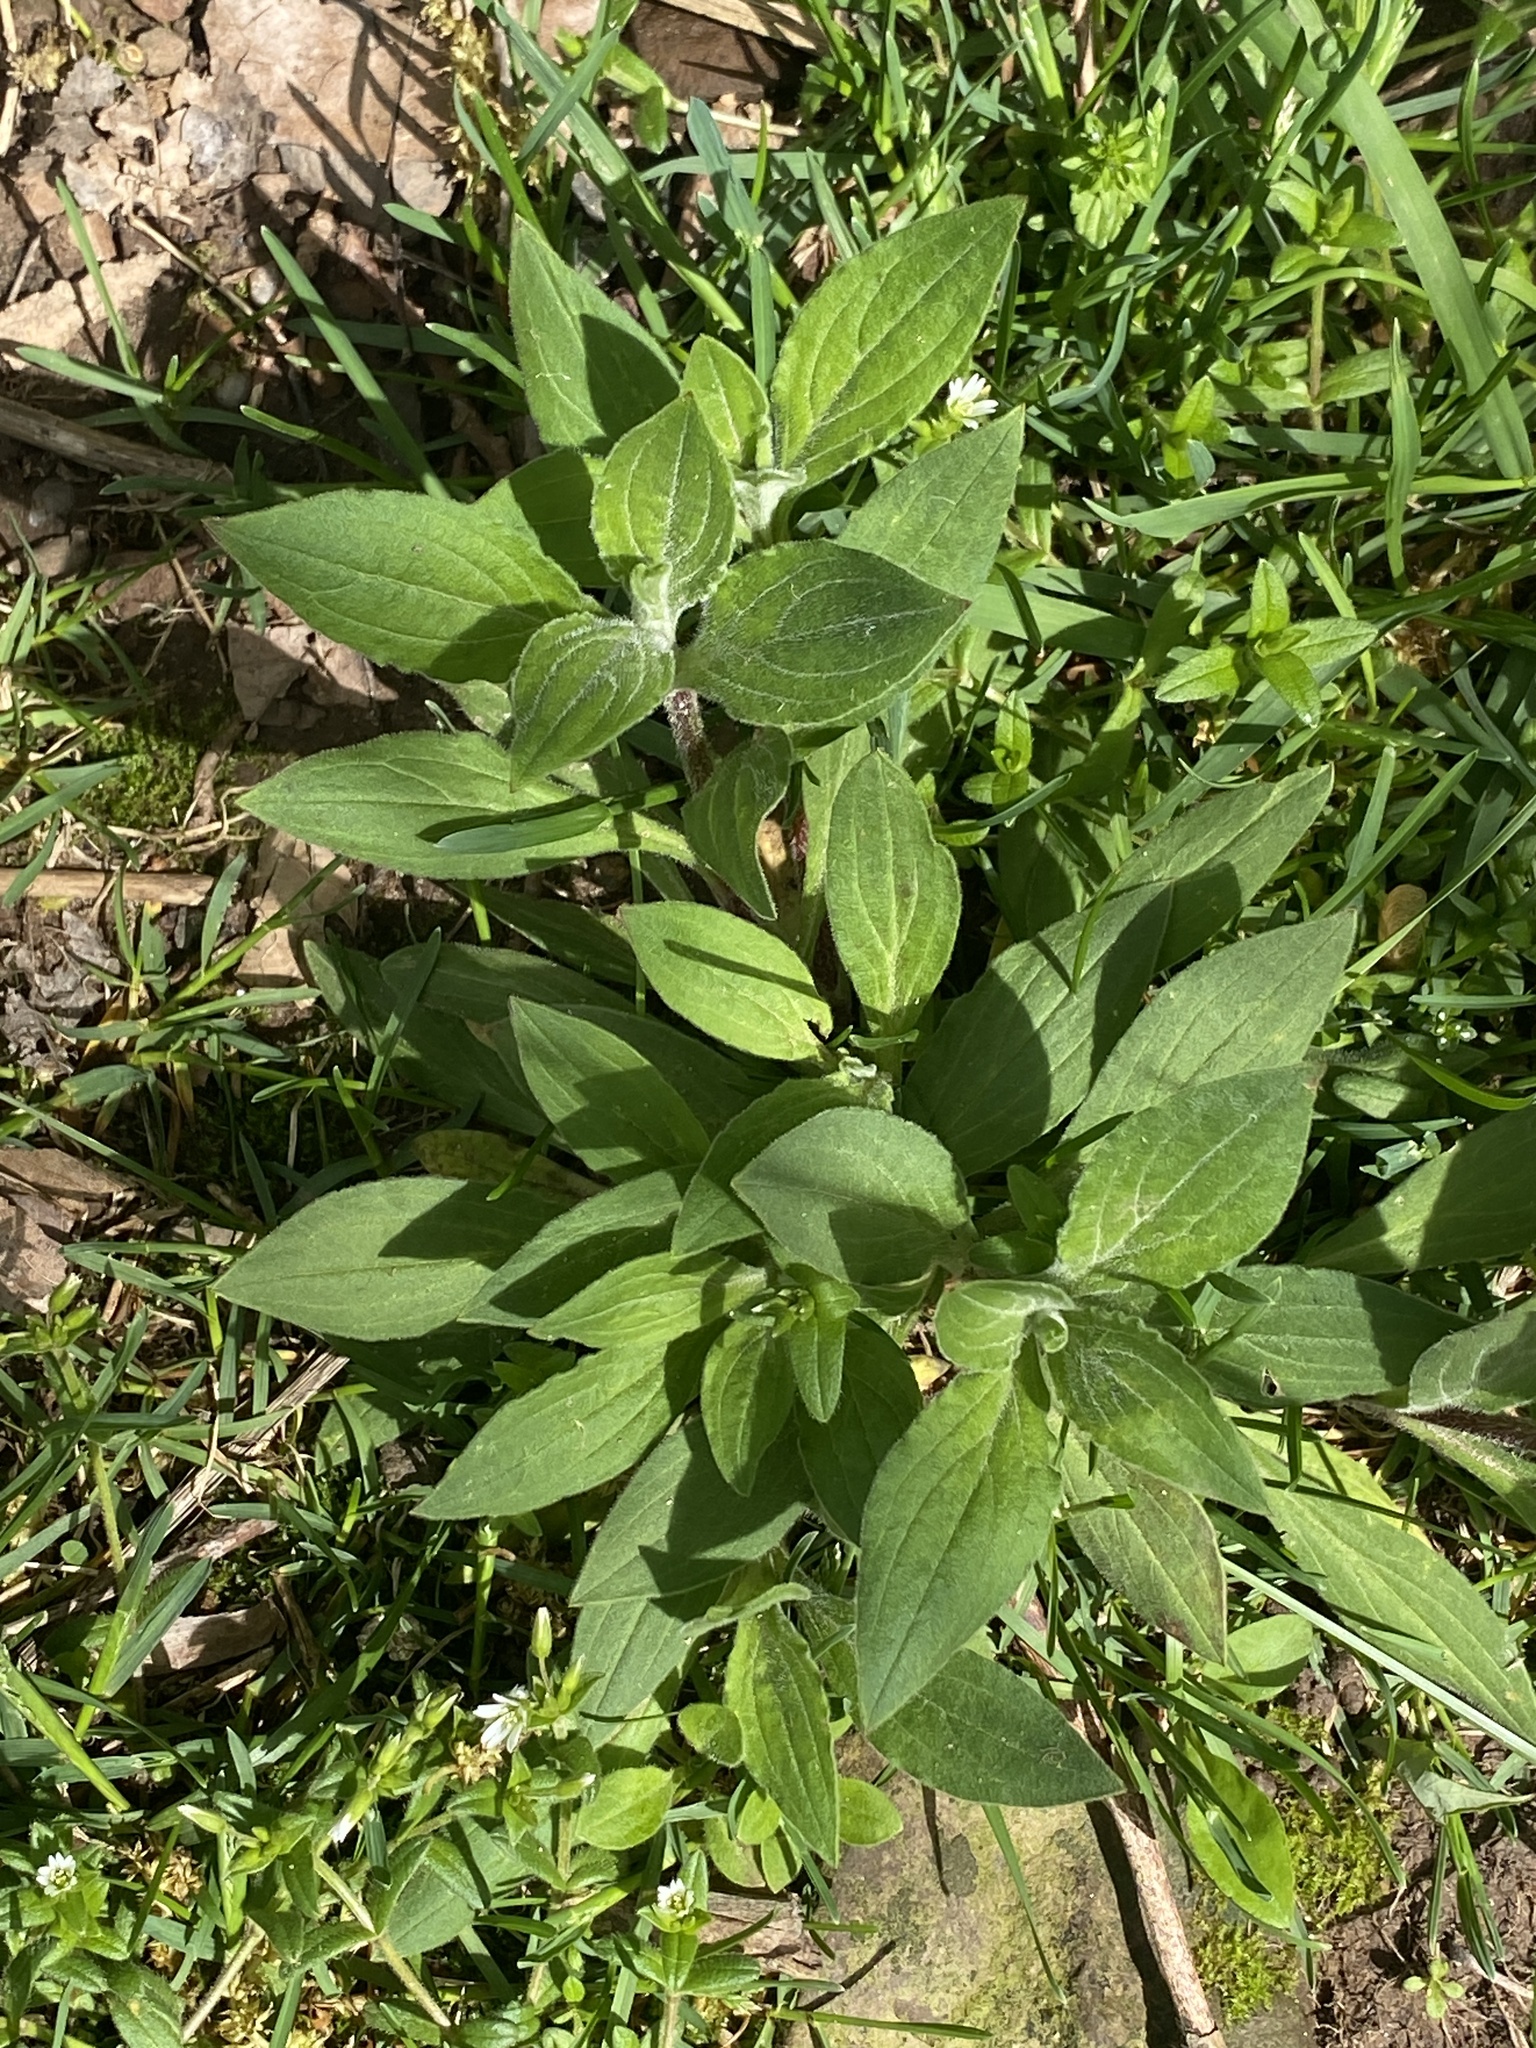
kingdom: Plantae
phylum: Tracheophyta
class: Magnoliopsida
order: Caryophyllales
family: Caryophyllaceae
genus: Silene
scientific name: Silene latifolia
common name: White campion
